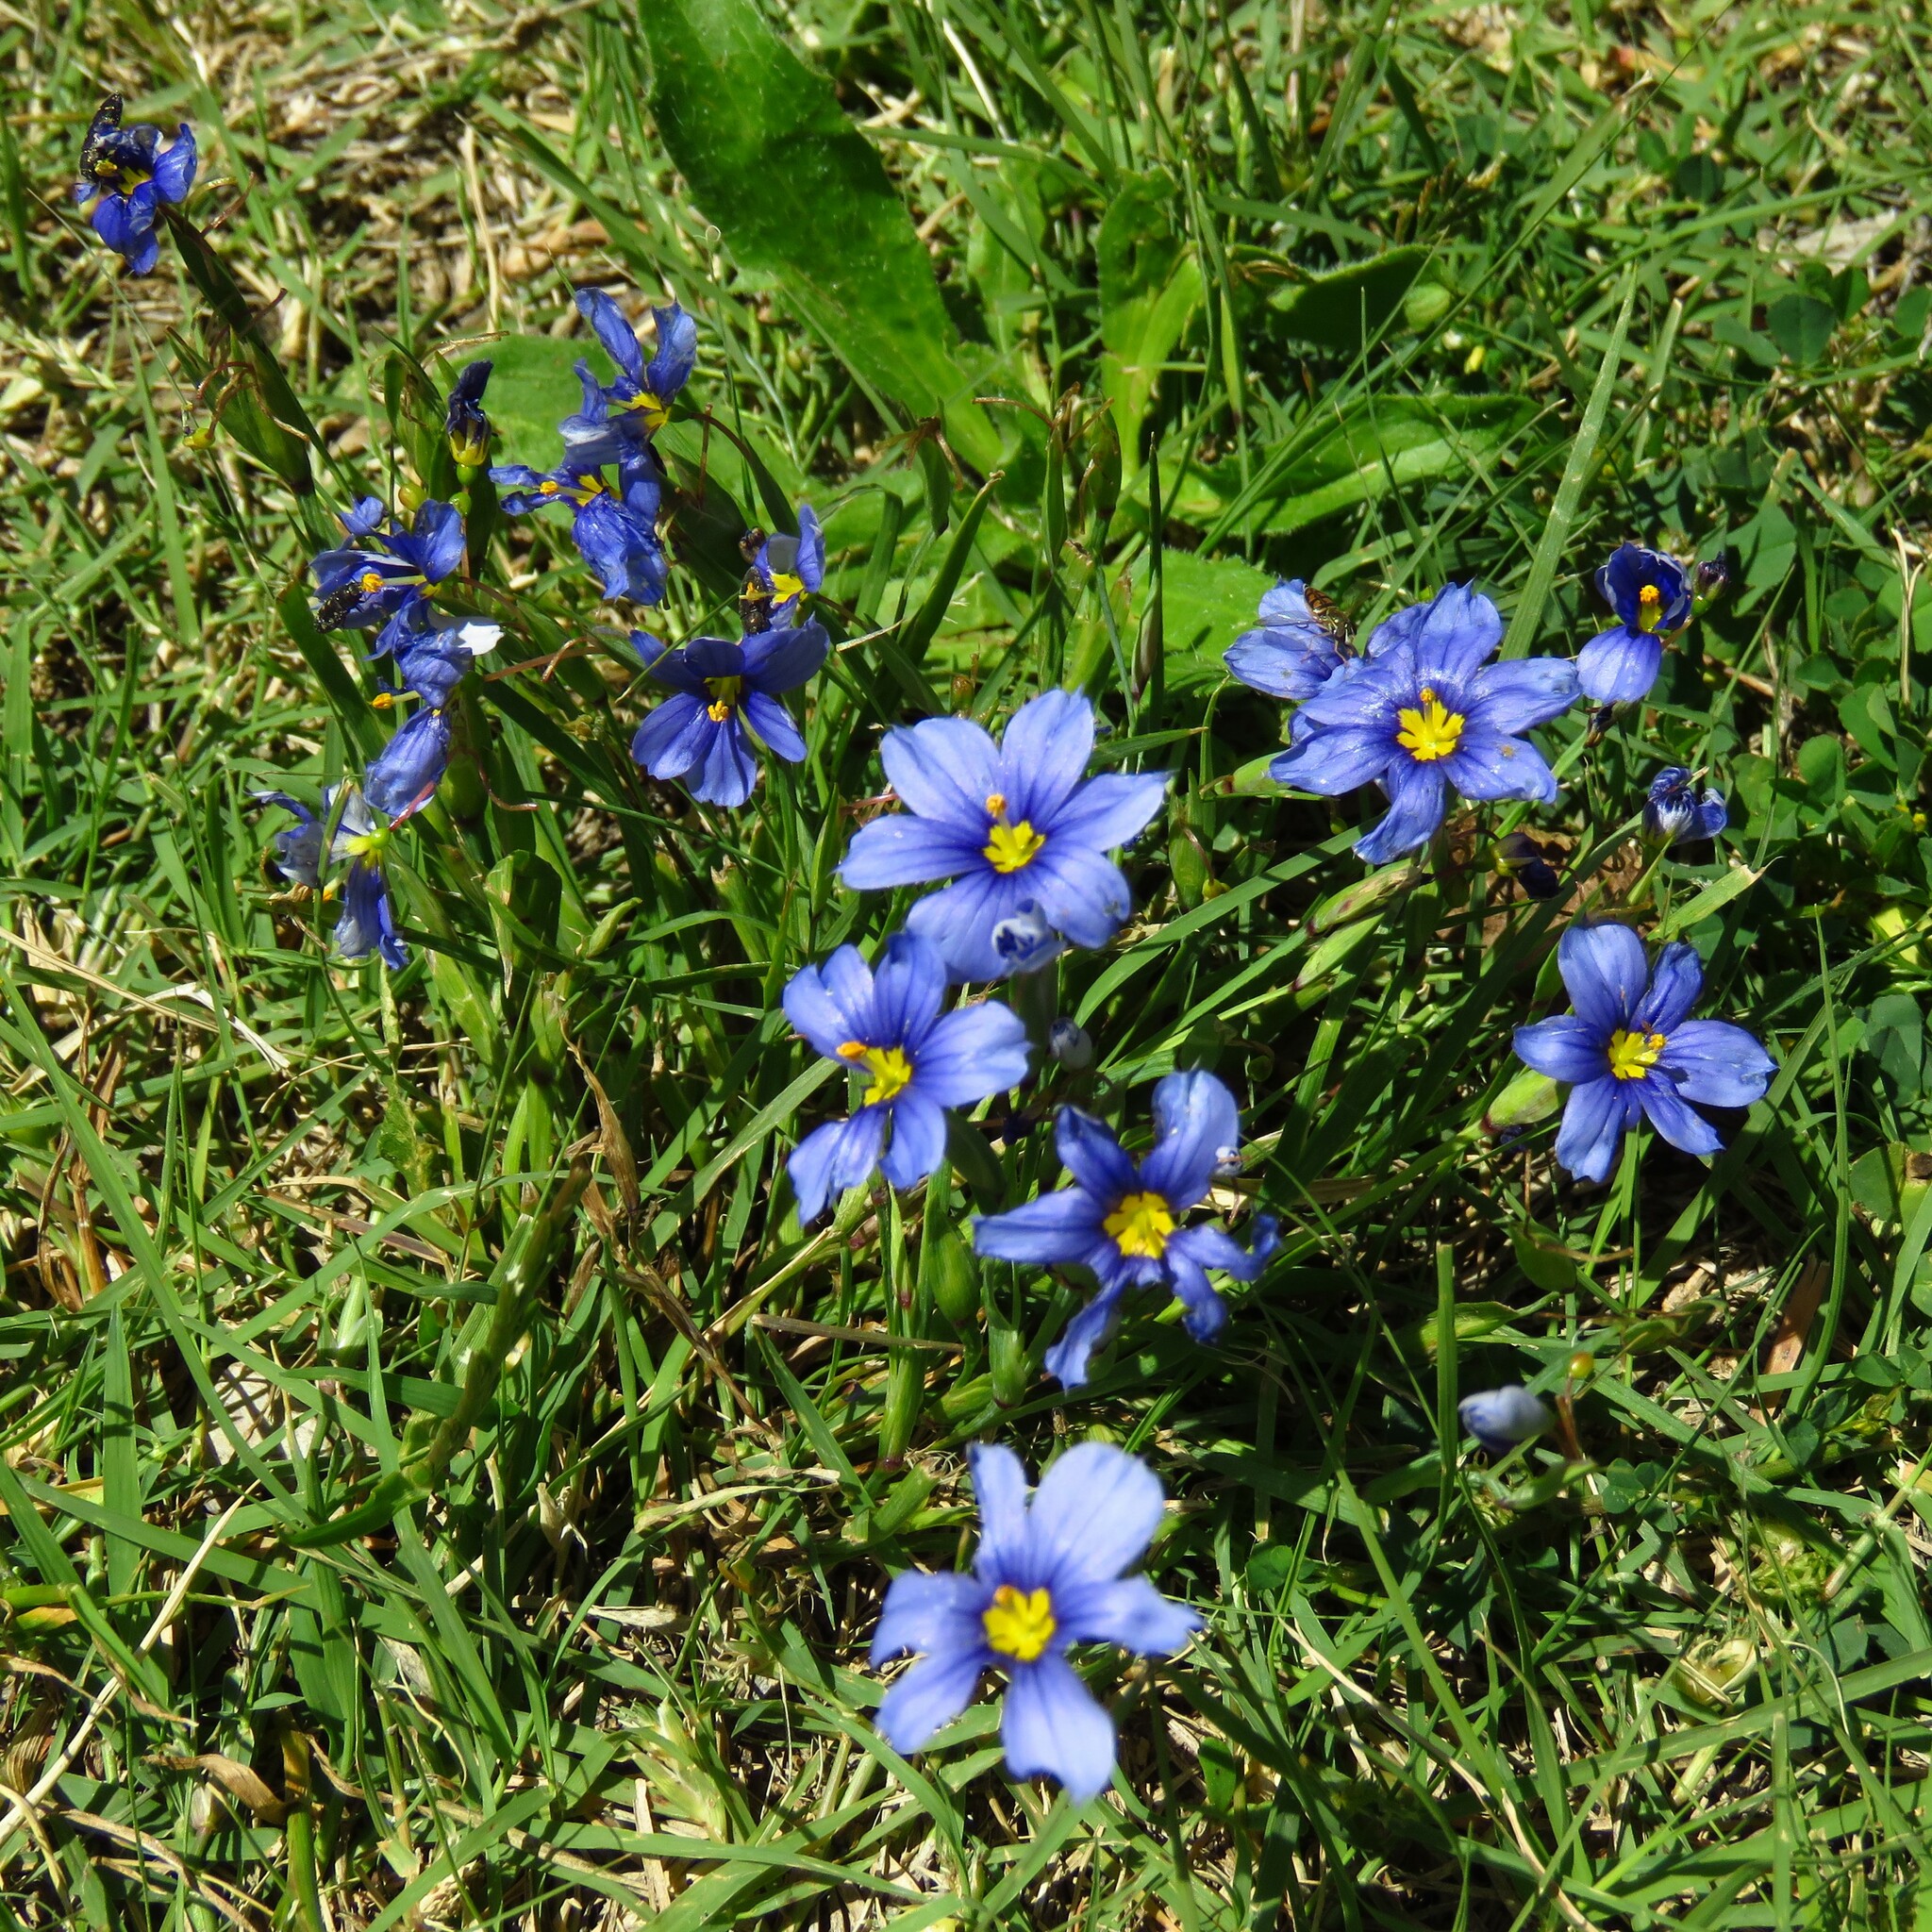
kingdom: Plantae
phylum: Tracheophyta
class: Liliopsida
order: Asparagales
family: Iridaceae
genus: Sisyrinchium
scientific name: Sisyrinchium pruinosum
